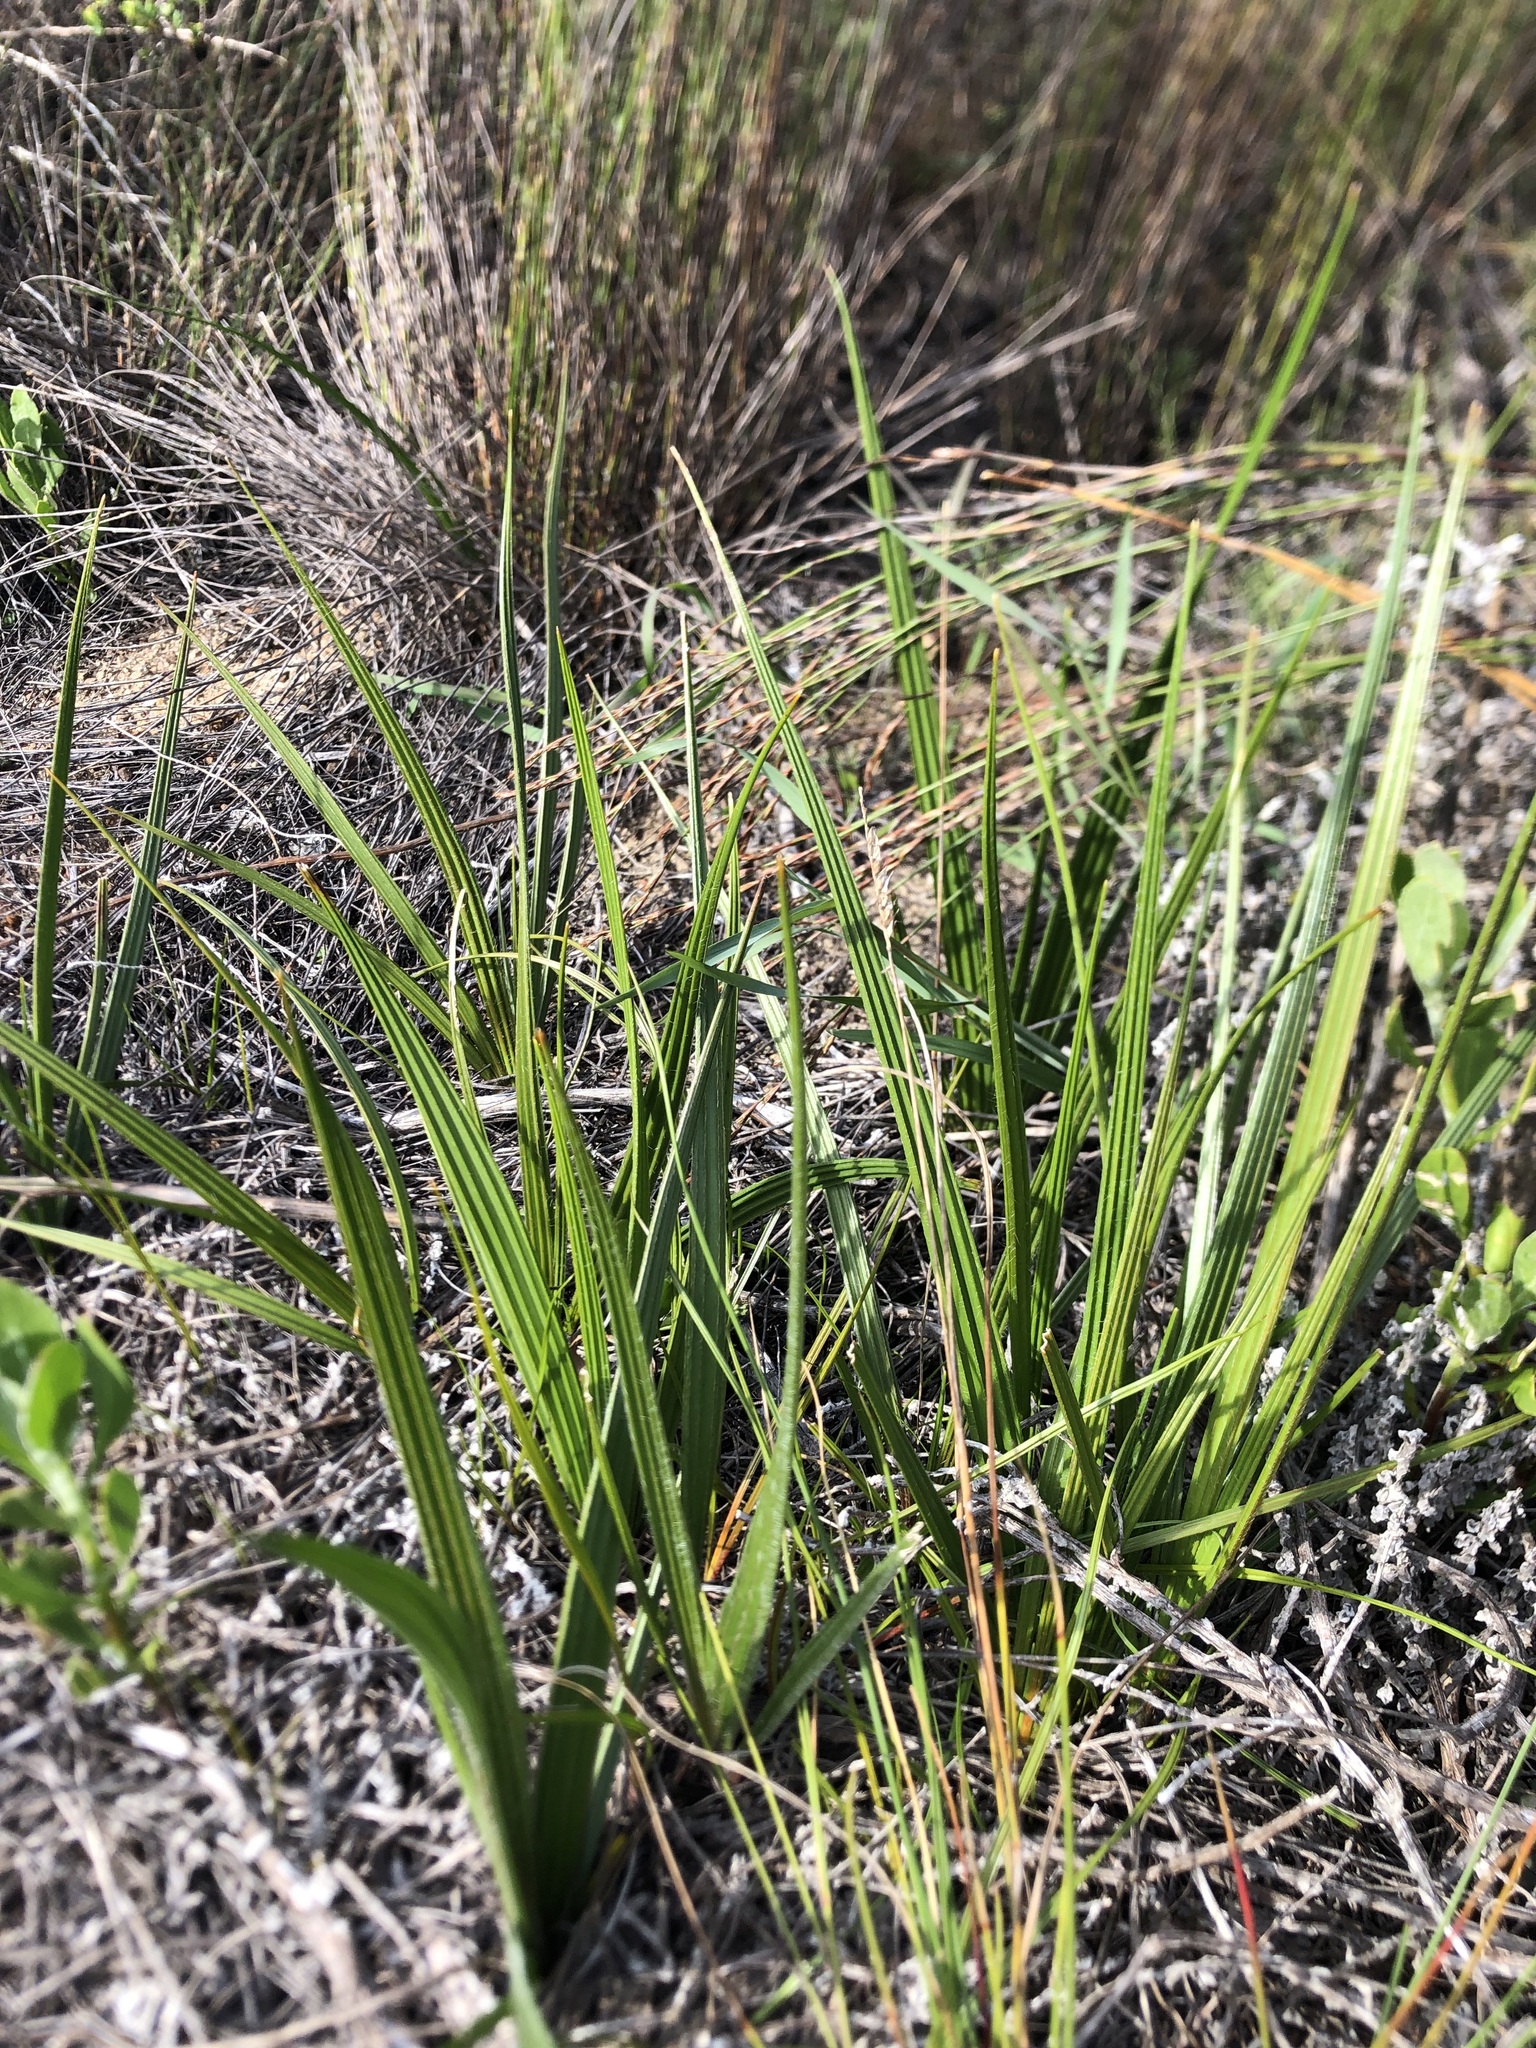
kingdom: Plantae
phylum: Tracheophyta
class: Liliopsida
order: Commelinales
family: Haemodoraceae
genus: Wachendorfia
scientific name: Wachendorfia paniculata
